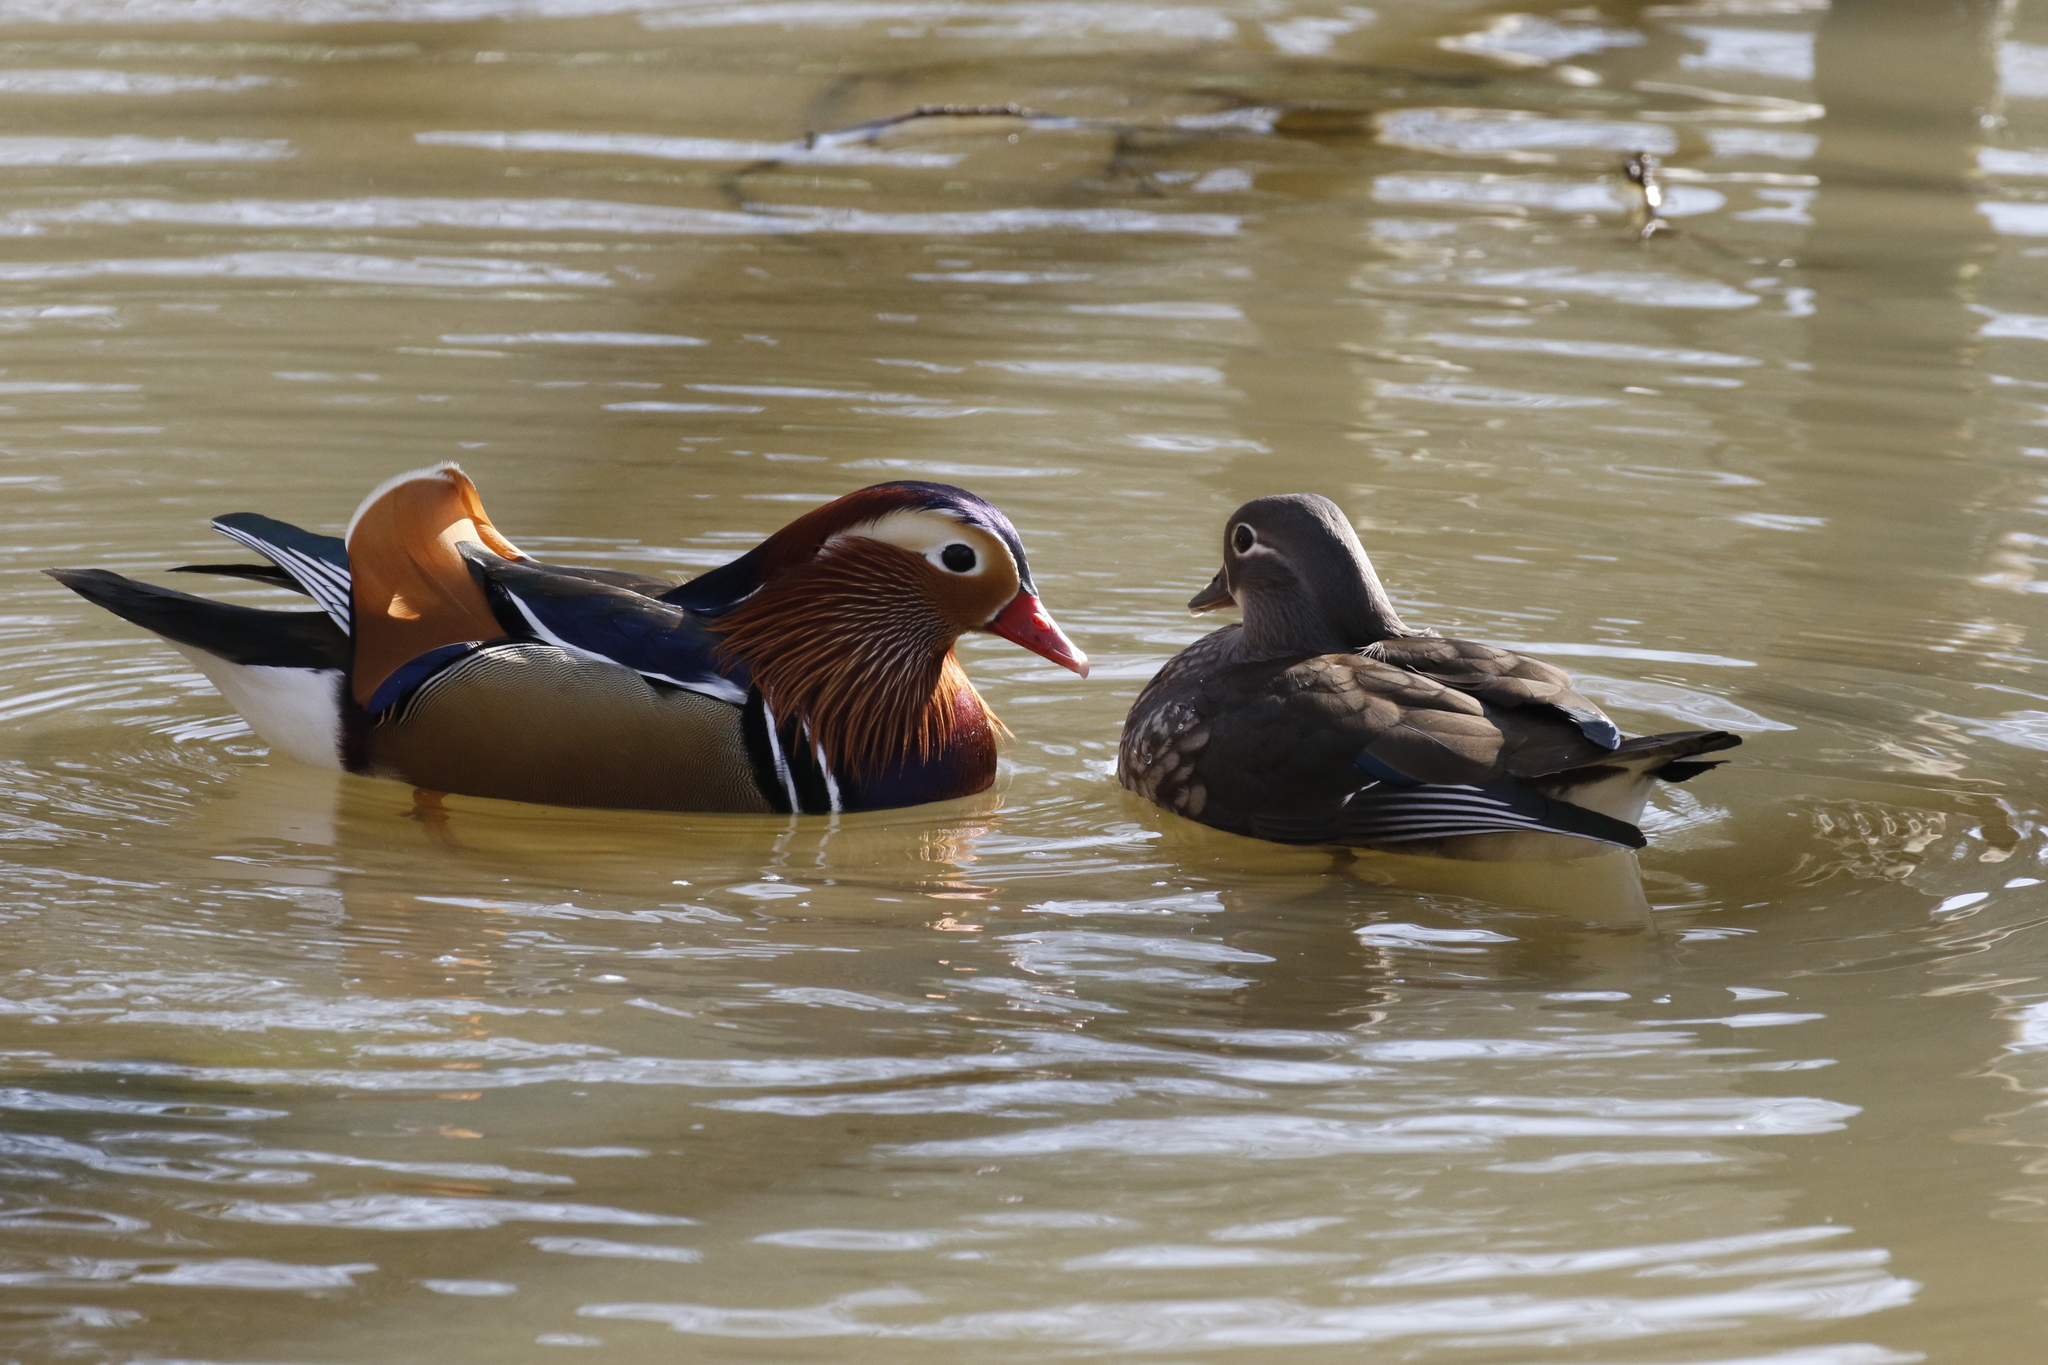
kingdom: Animalia
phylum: Chordata
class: Aves
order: Anseriformes
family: Anatidae
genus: Aix
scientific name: Aix galericulata
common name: Mandarin duck
